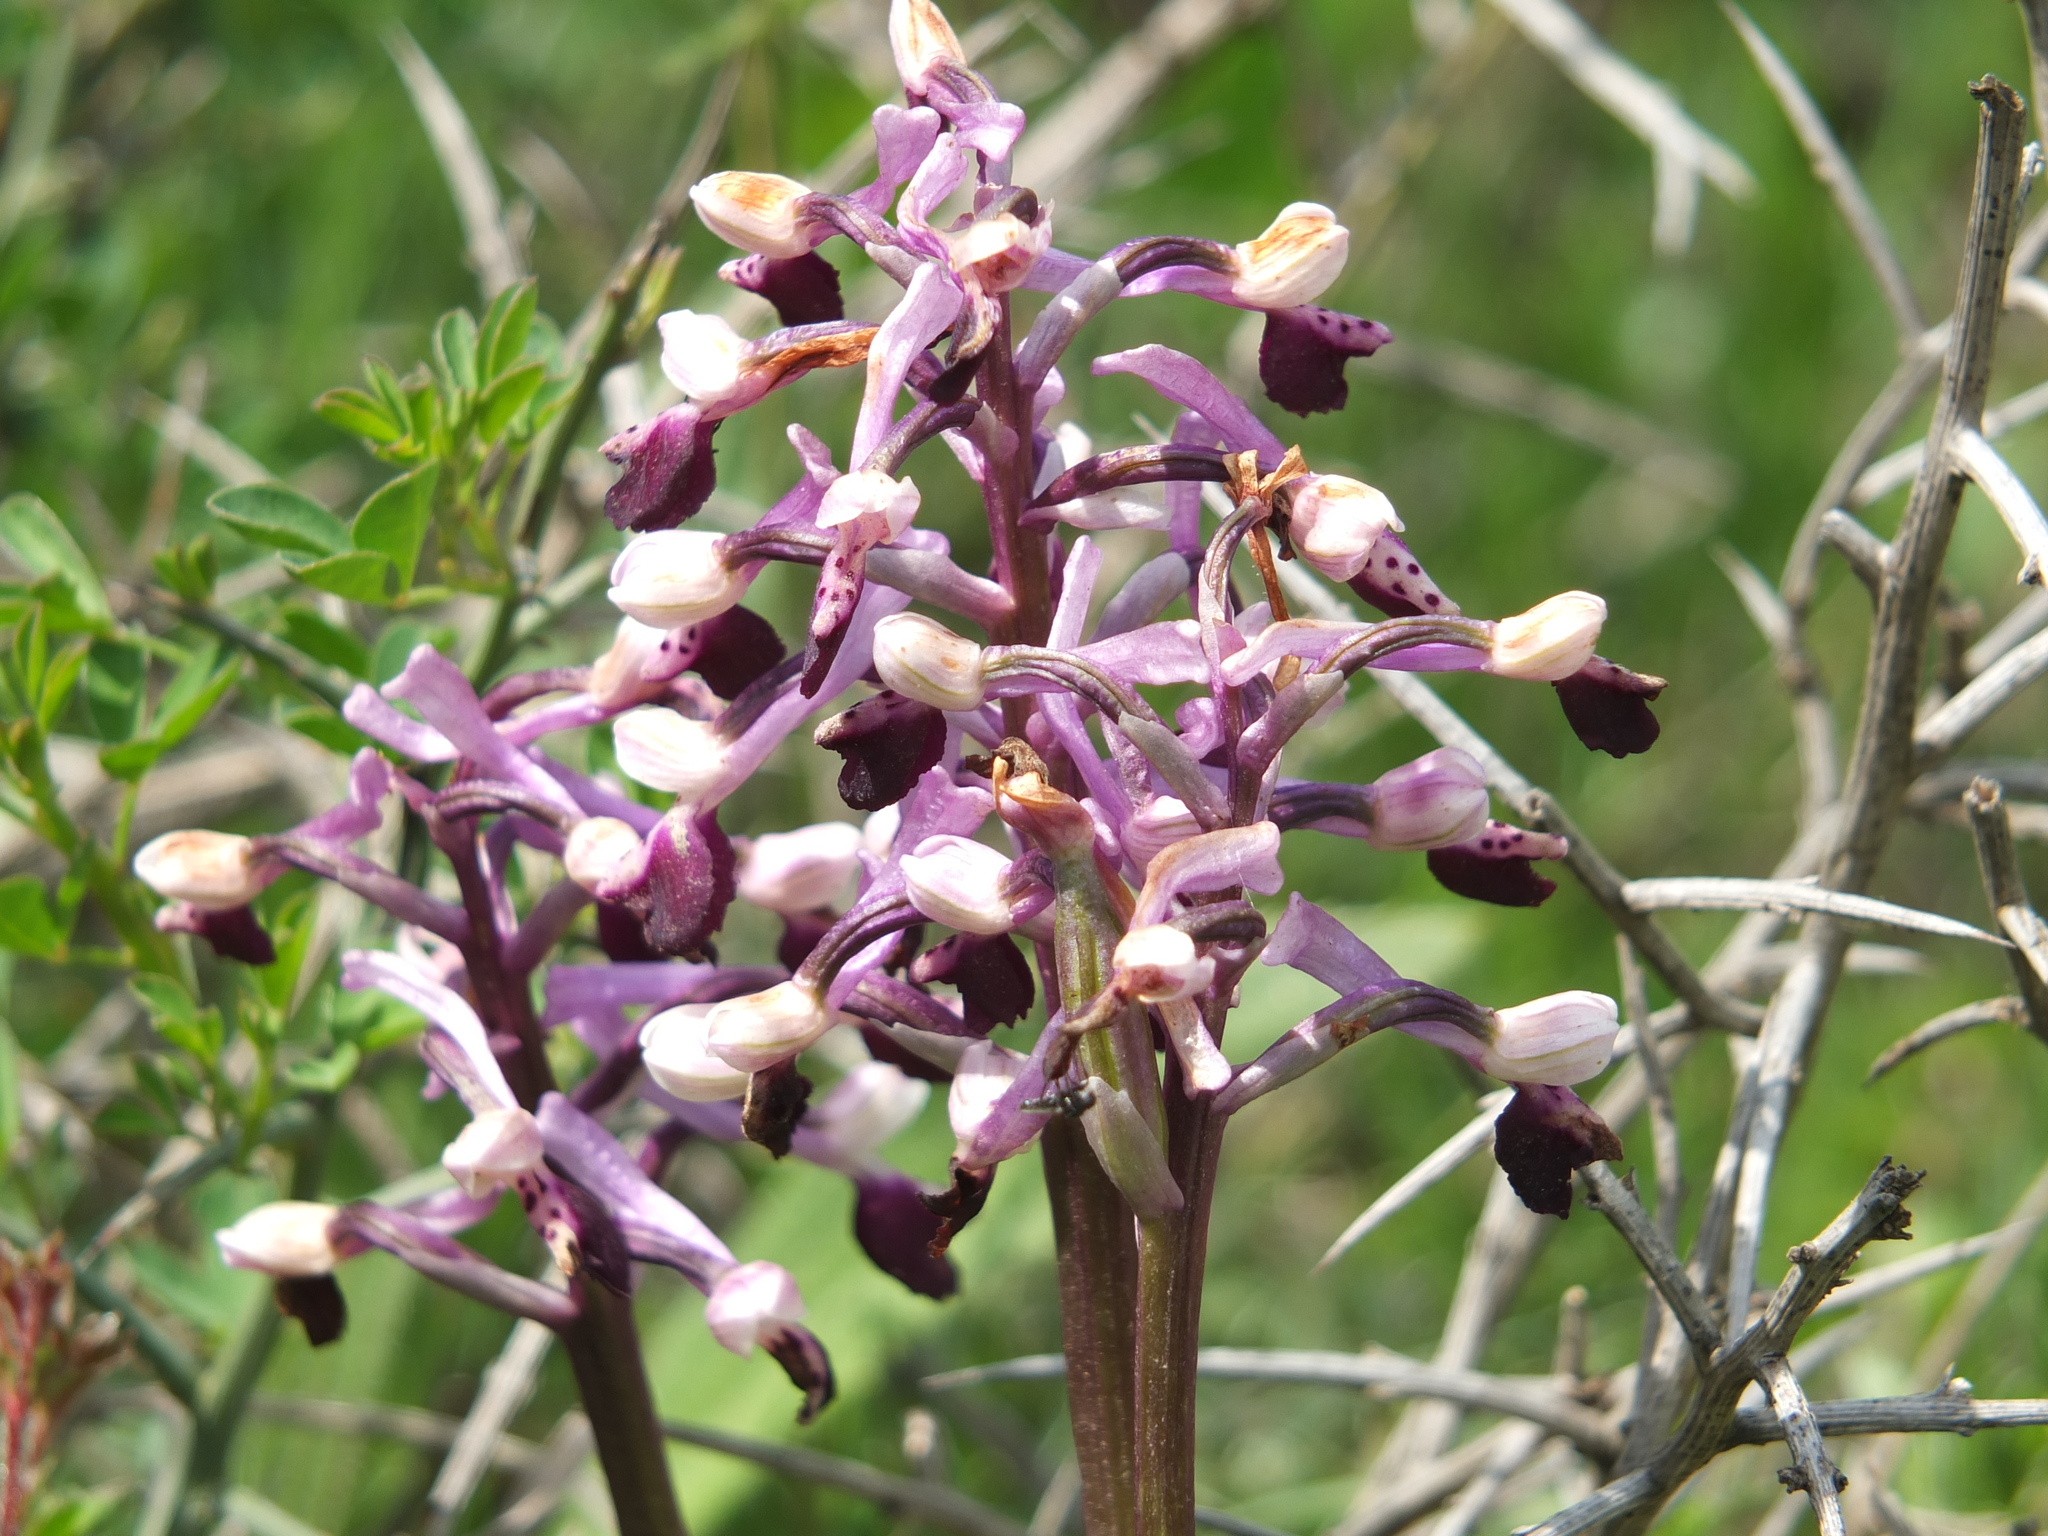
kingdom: Plantae
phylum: Tracheophyta
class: Liliopsida
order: Asparagales
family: Orchidaceae
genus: Anacamptis
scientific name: Anacamptis morio
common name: Green-winged orchid
